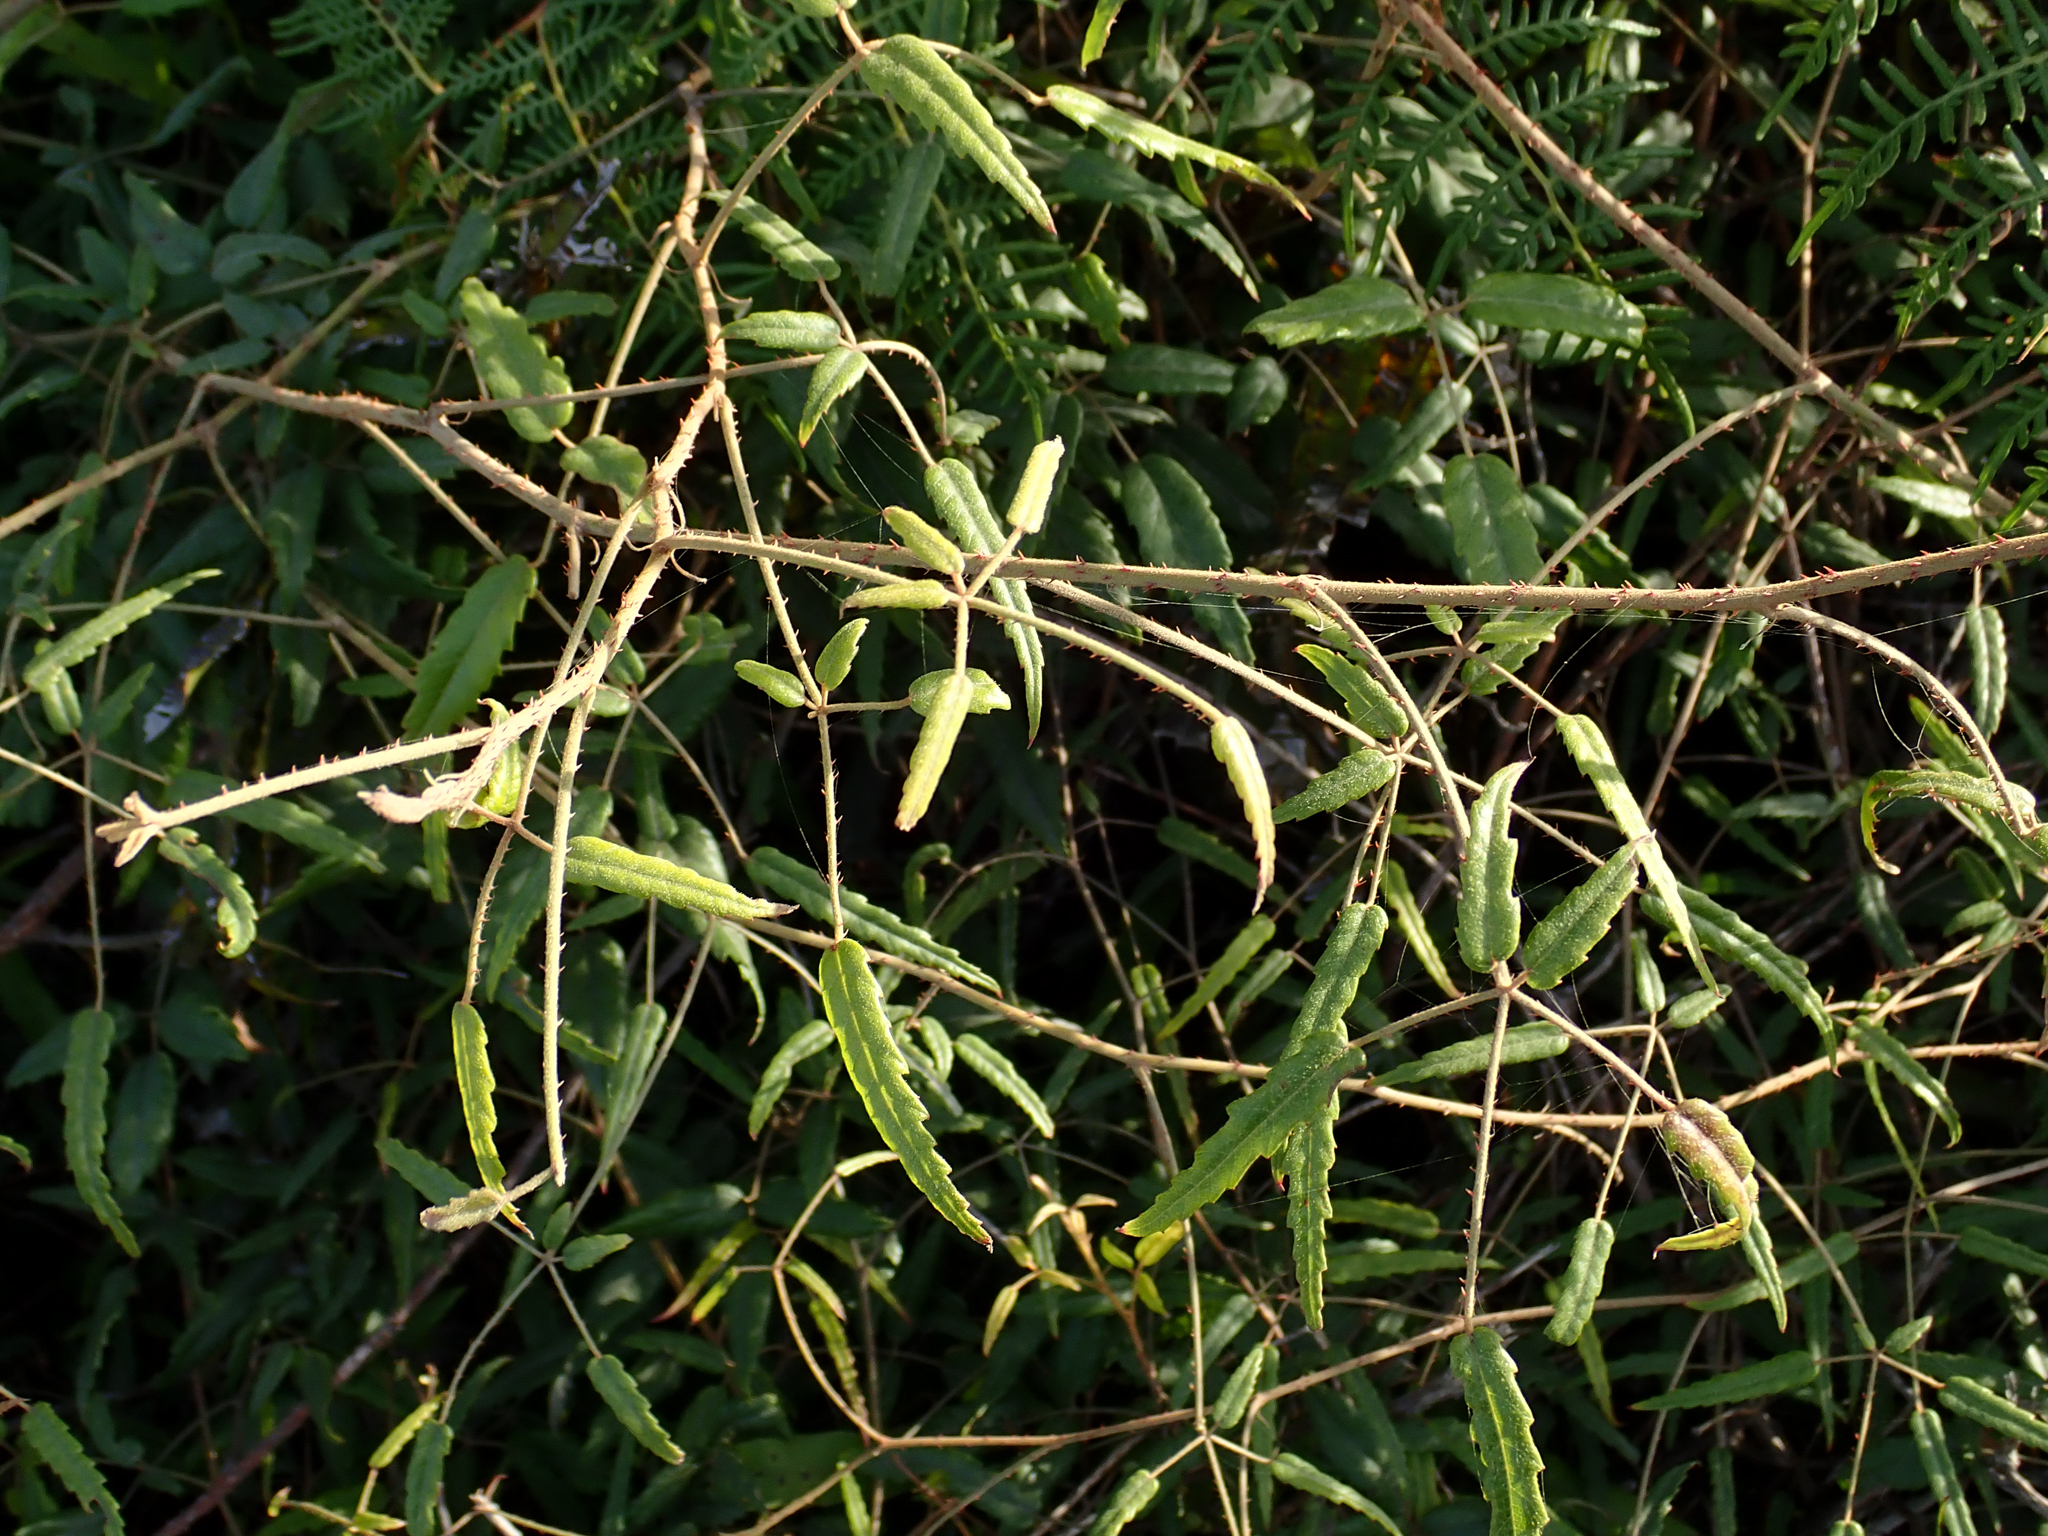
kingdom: Plantae
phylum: Tracheophyta
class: Magnoliopsida
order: Rosales
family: Rosaceae
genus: Rubus
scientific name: Rubus schmidelioides
